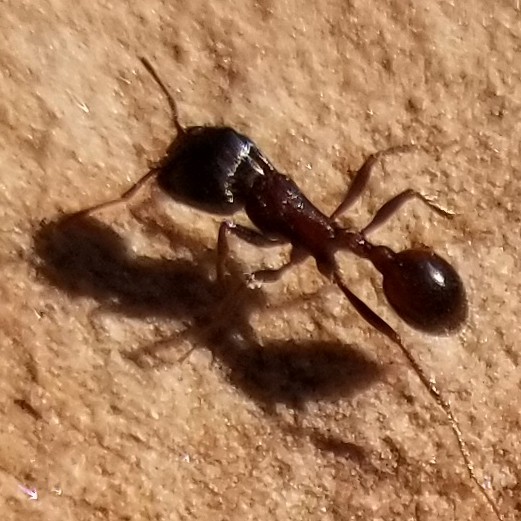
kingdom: Animalia
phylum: Arthropoda
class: Insecta
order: Hymenoptera
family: Formicidae
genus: Pogonomyrmex
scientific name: Pogonomyrmex rugosus
